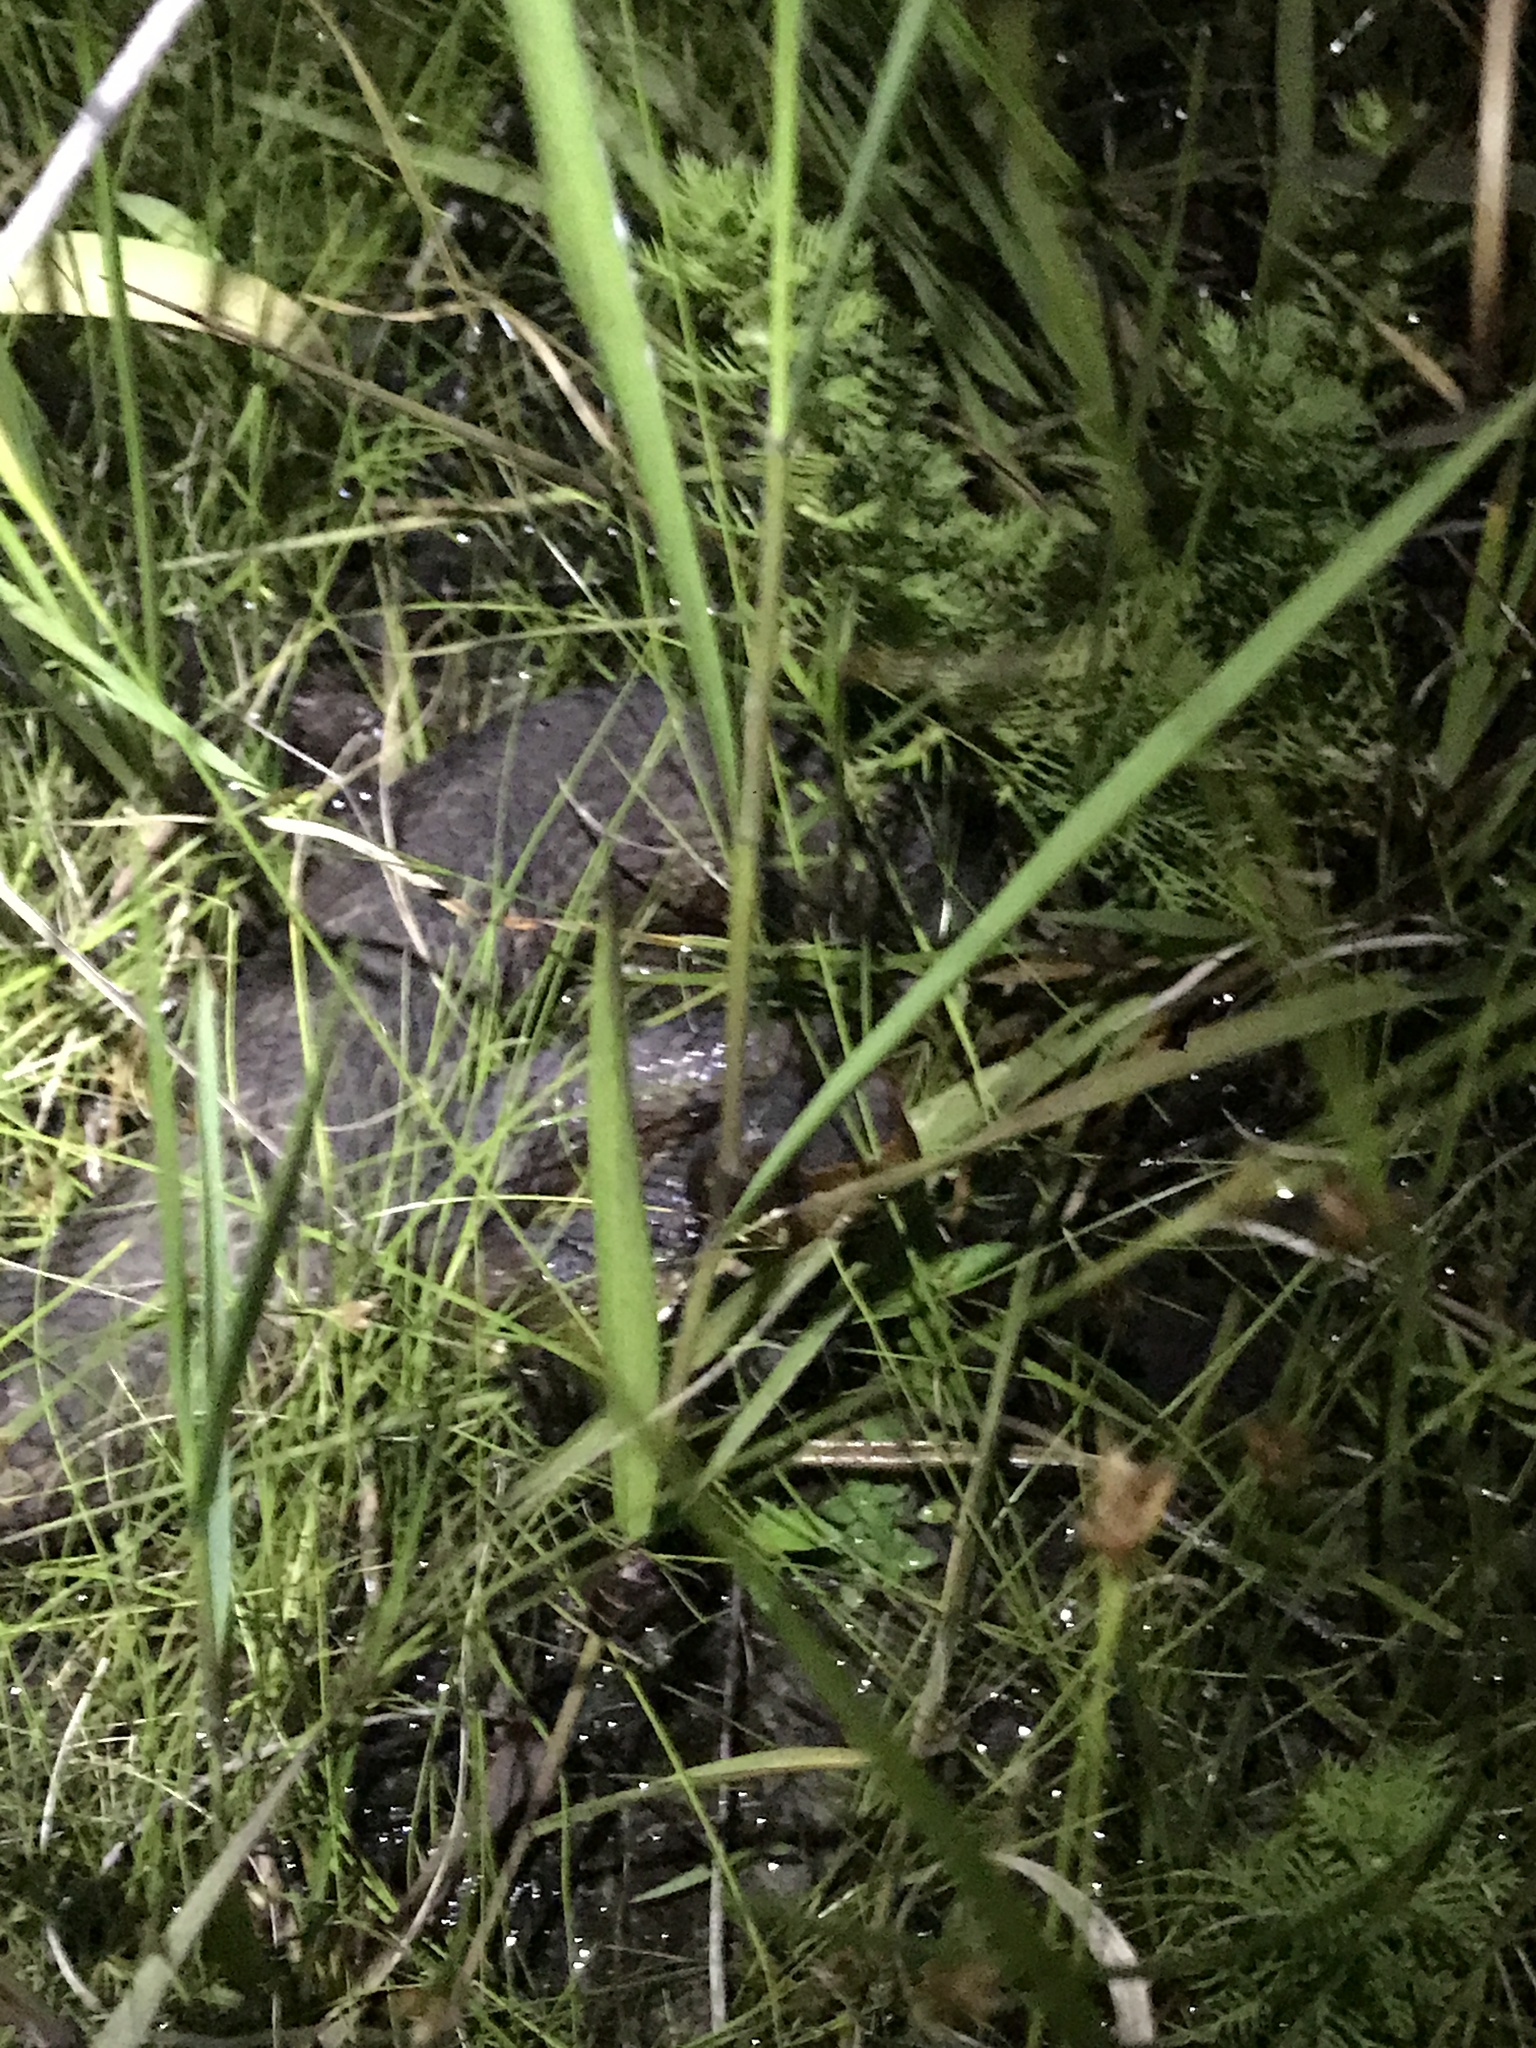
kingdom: Animalia
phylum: Chordata
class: Squamata
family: Viperidae
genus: Agkistrodon
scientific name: Agkistrodon piscivorus
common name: Cottonmouth
